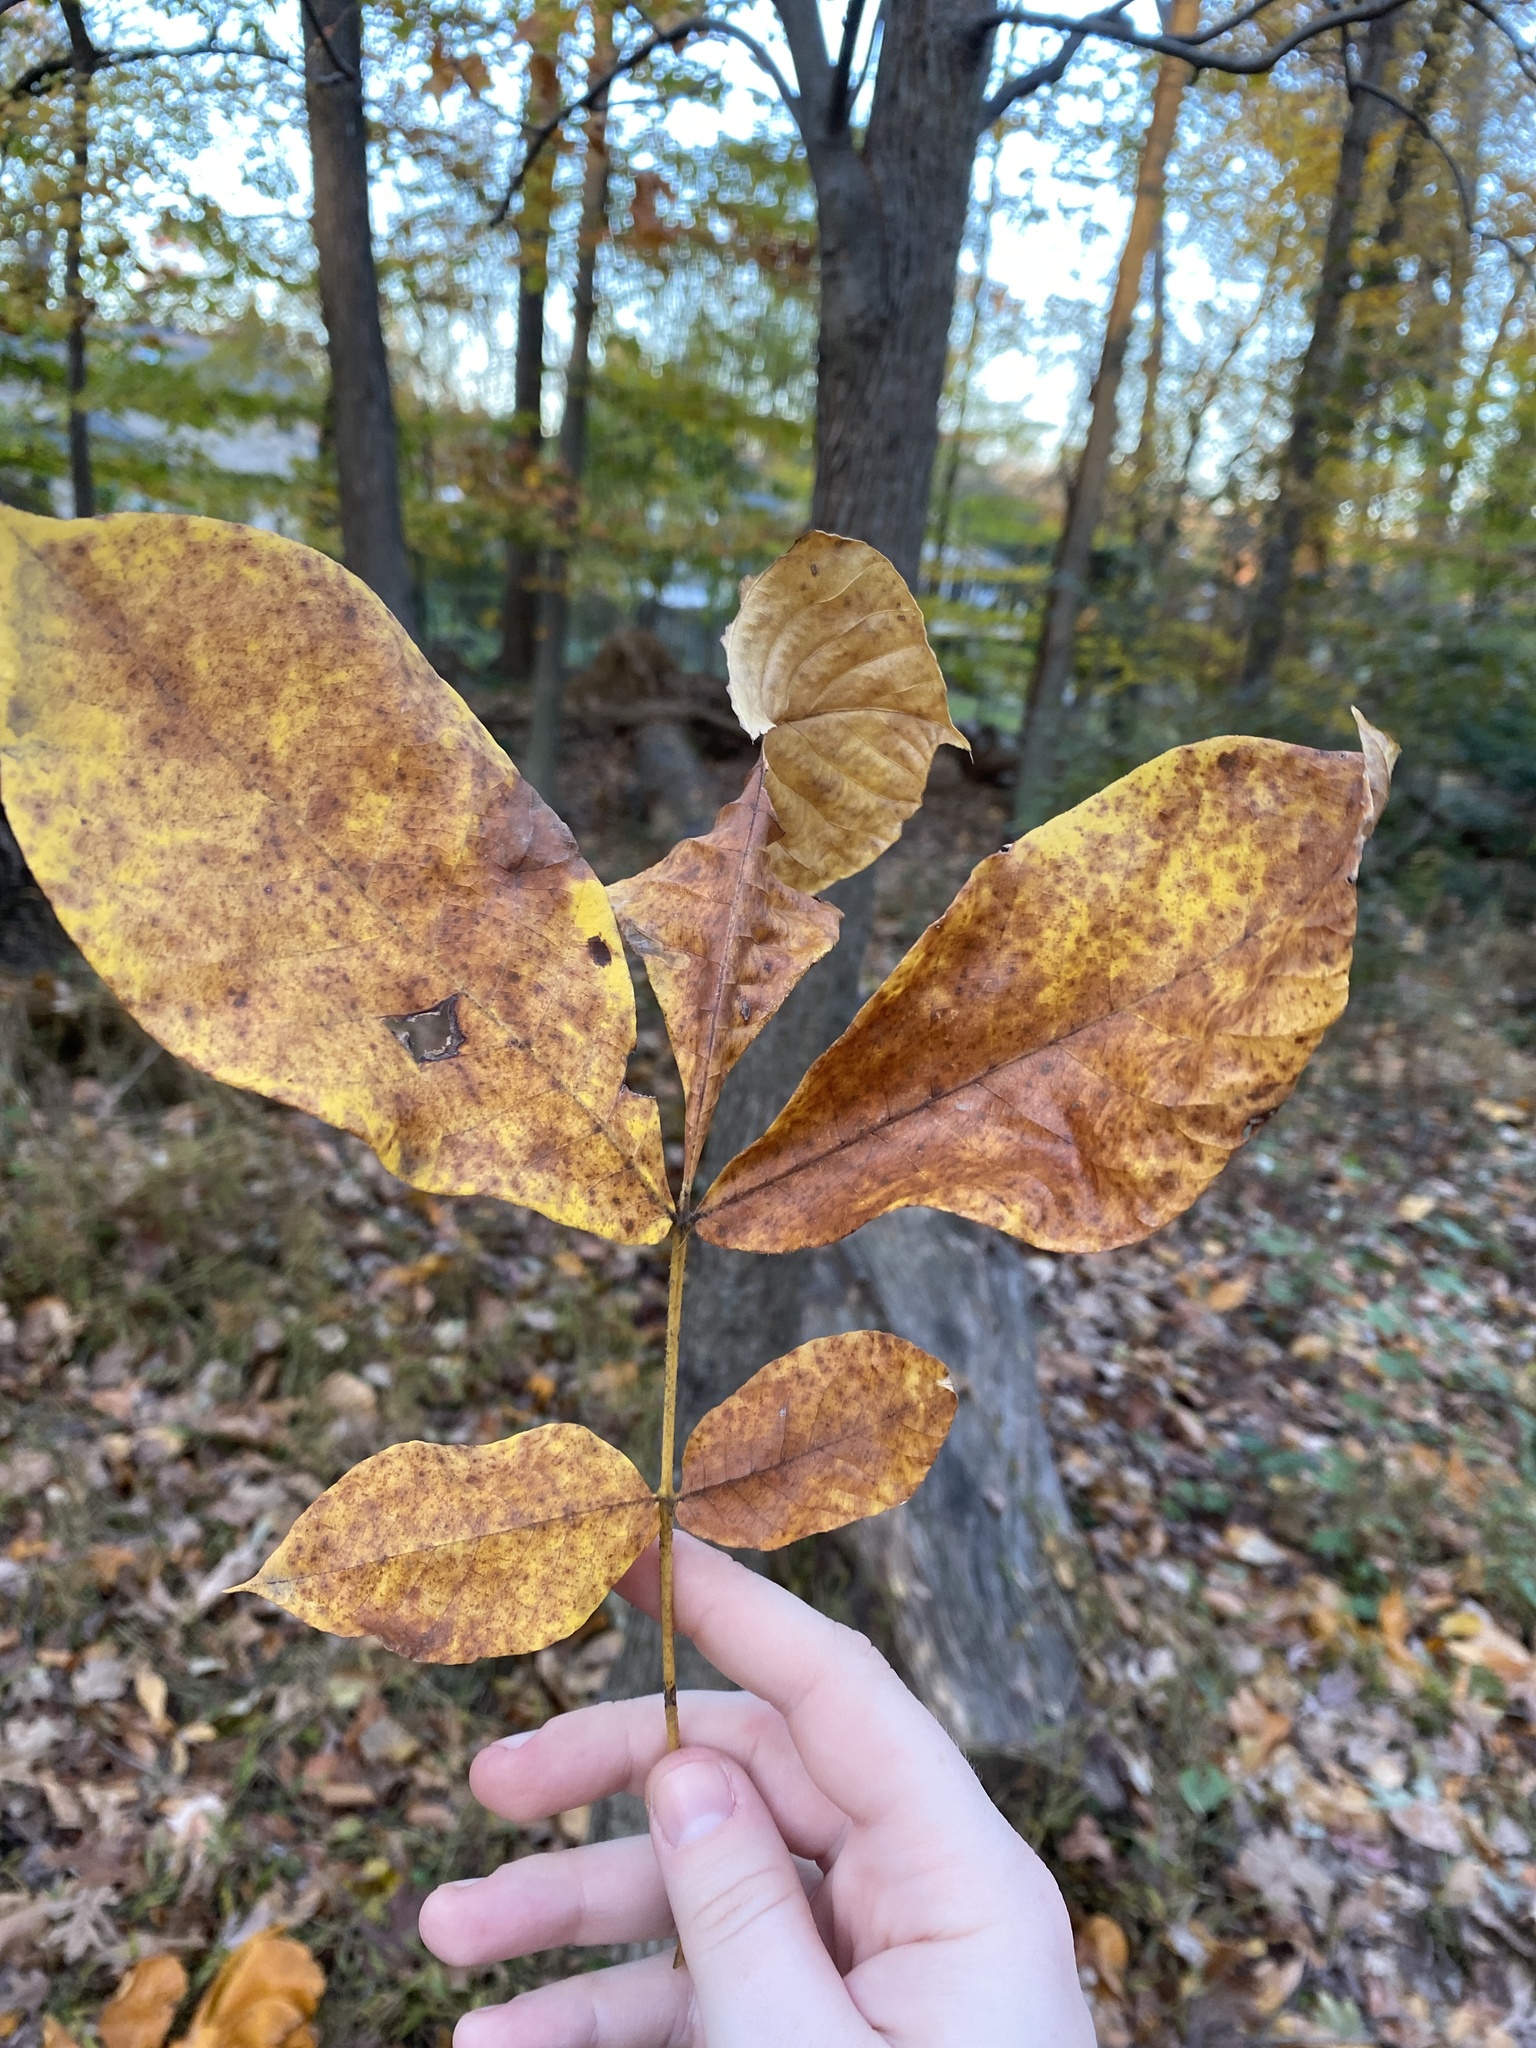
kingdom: Plantae
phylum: Tracheophyta
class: Magnoliopsida
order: Fagales
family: Juglandaceae
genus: Carya
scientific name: Carya ovata
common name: Shagbark hickory
